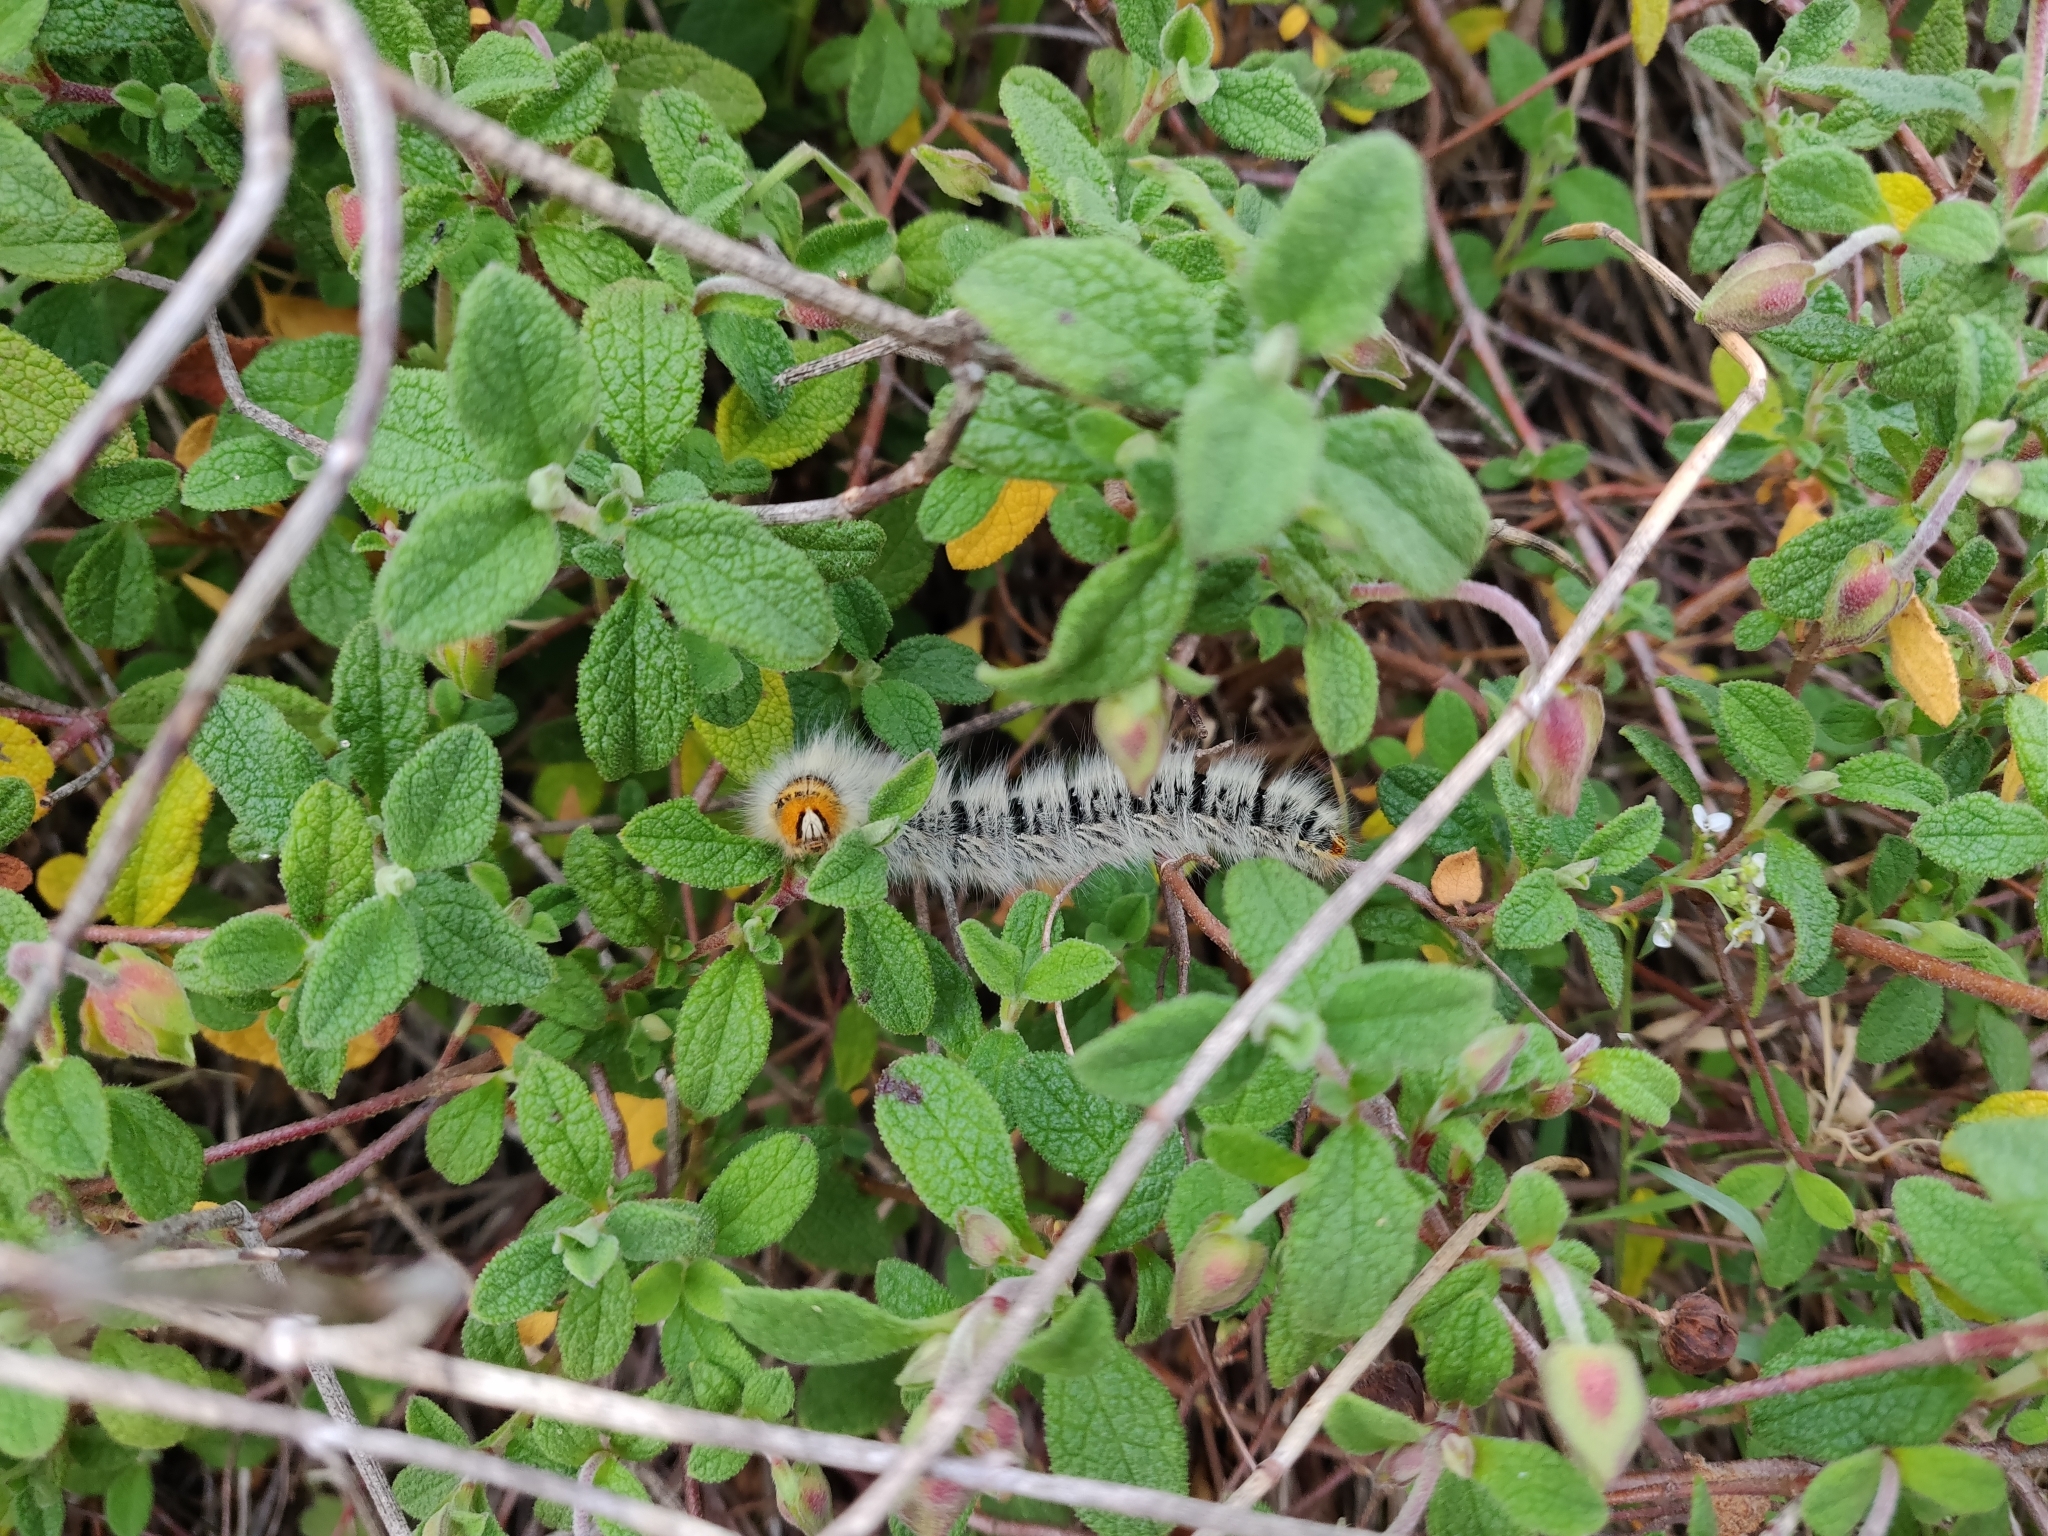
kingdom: Animalia
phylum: Arthropoda
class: Insecta
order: Lepidoptera
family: Lasiocampidae
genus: Lasiocampa
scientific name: Lasiocampa trifolii
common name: Grass eggar
